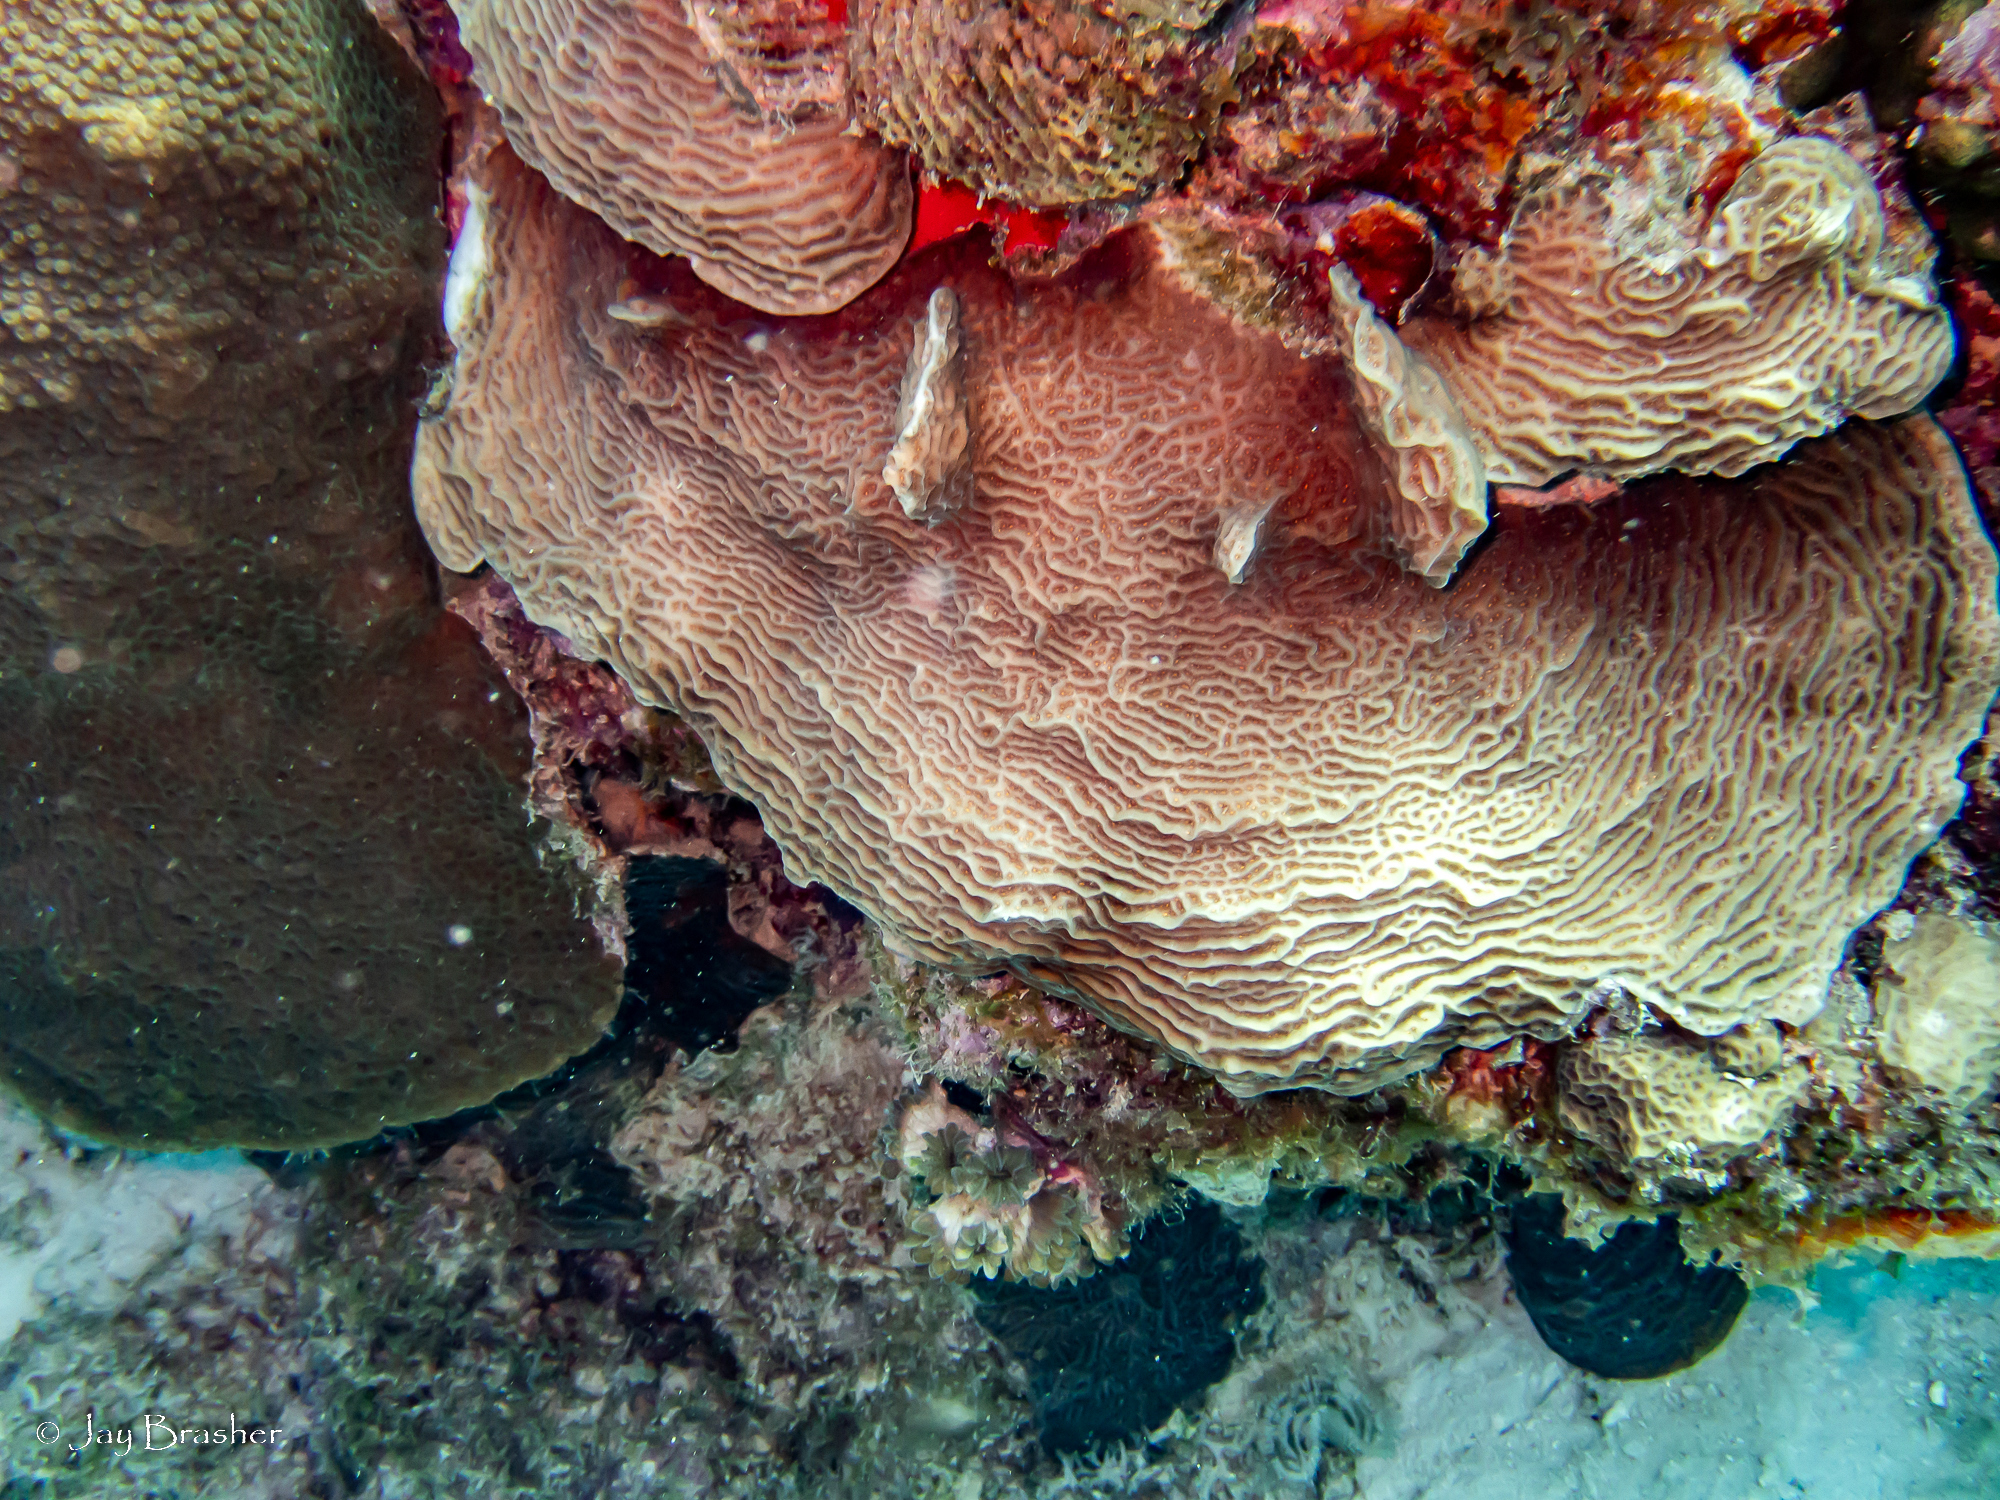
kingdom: Animalia
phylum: Cnidaria
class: Anthozoa
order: Scleractinia
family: Agariciidae
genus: Agaricia
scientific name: Agaricia agaricites
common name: Lettuce coral
